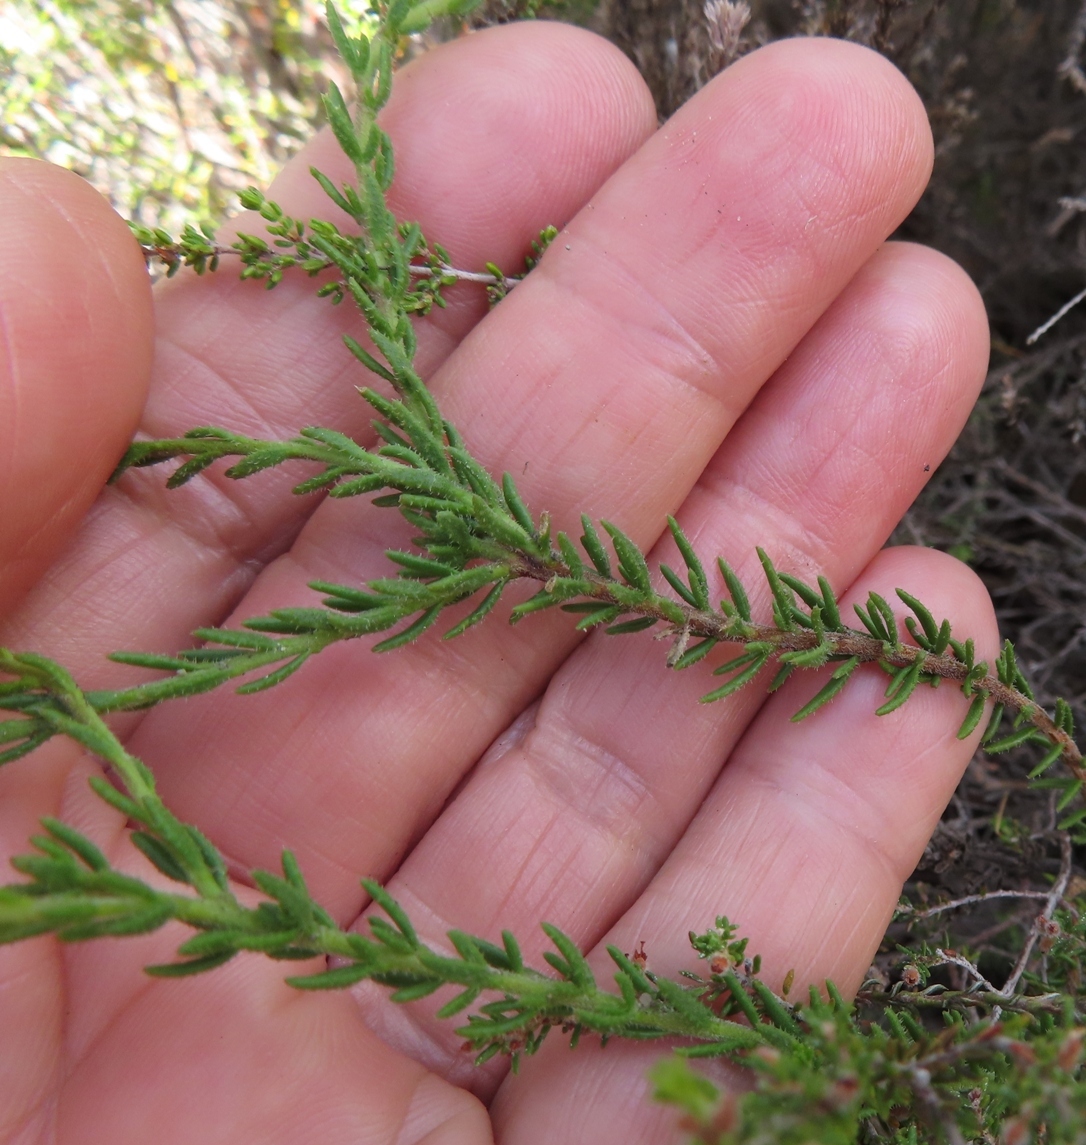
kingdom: Plantae
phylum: Tracheophyta
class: Magnoliopsida
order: Lamiales
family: Scrophulariaceae
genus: Selago
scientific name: Selago scabrida
